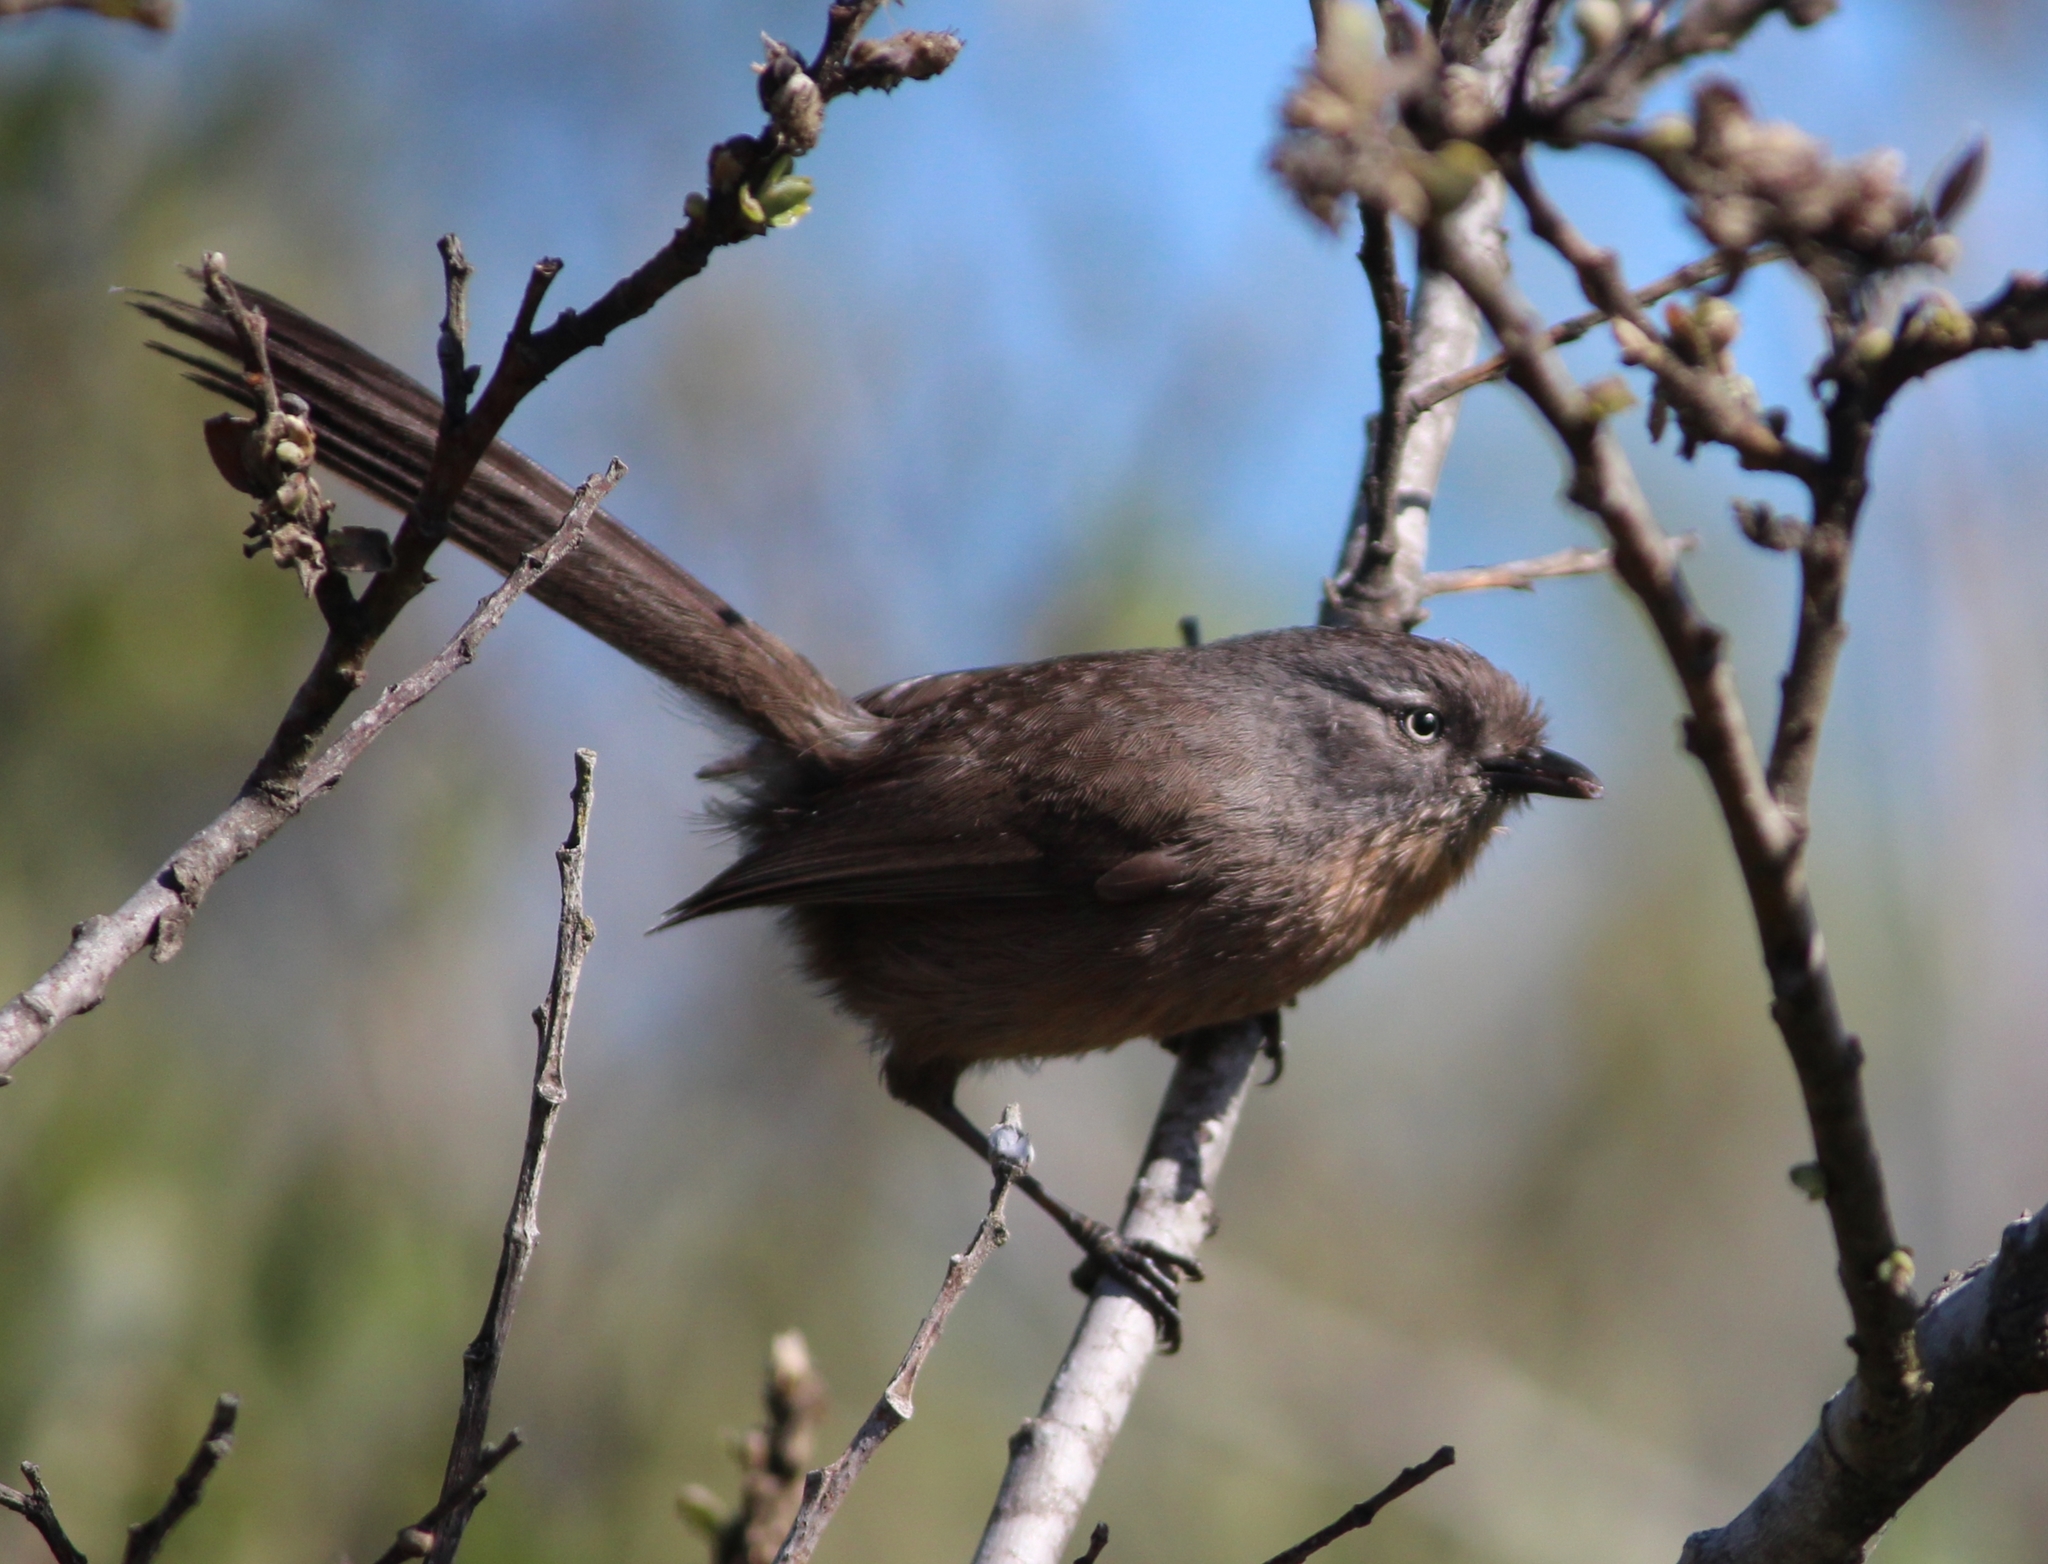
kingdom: Animalia
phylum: Chordata
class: Aves
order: Passeriformes
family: Sylviidae
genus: Chamaea
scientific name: Chamaea fasciata
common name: Wrentit
